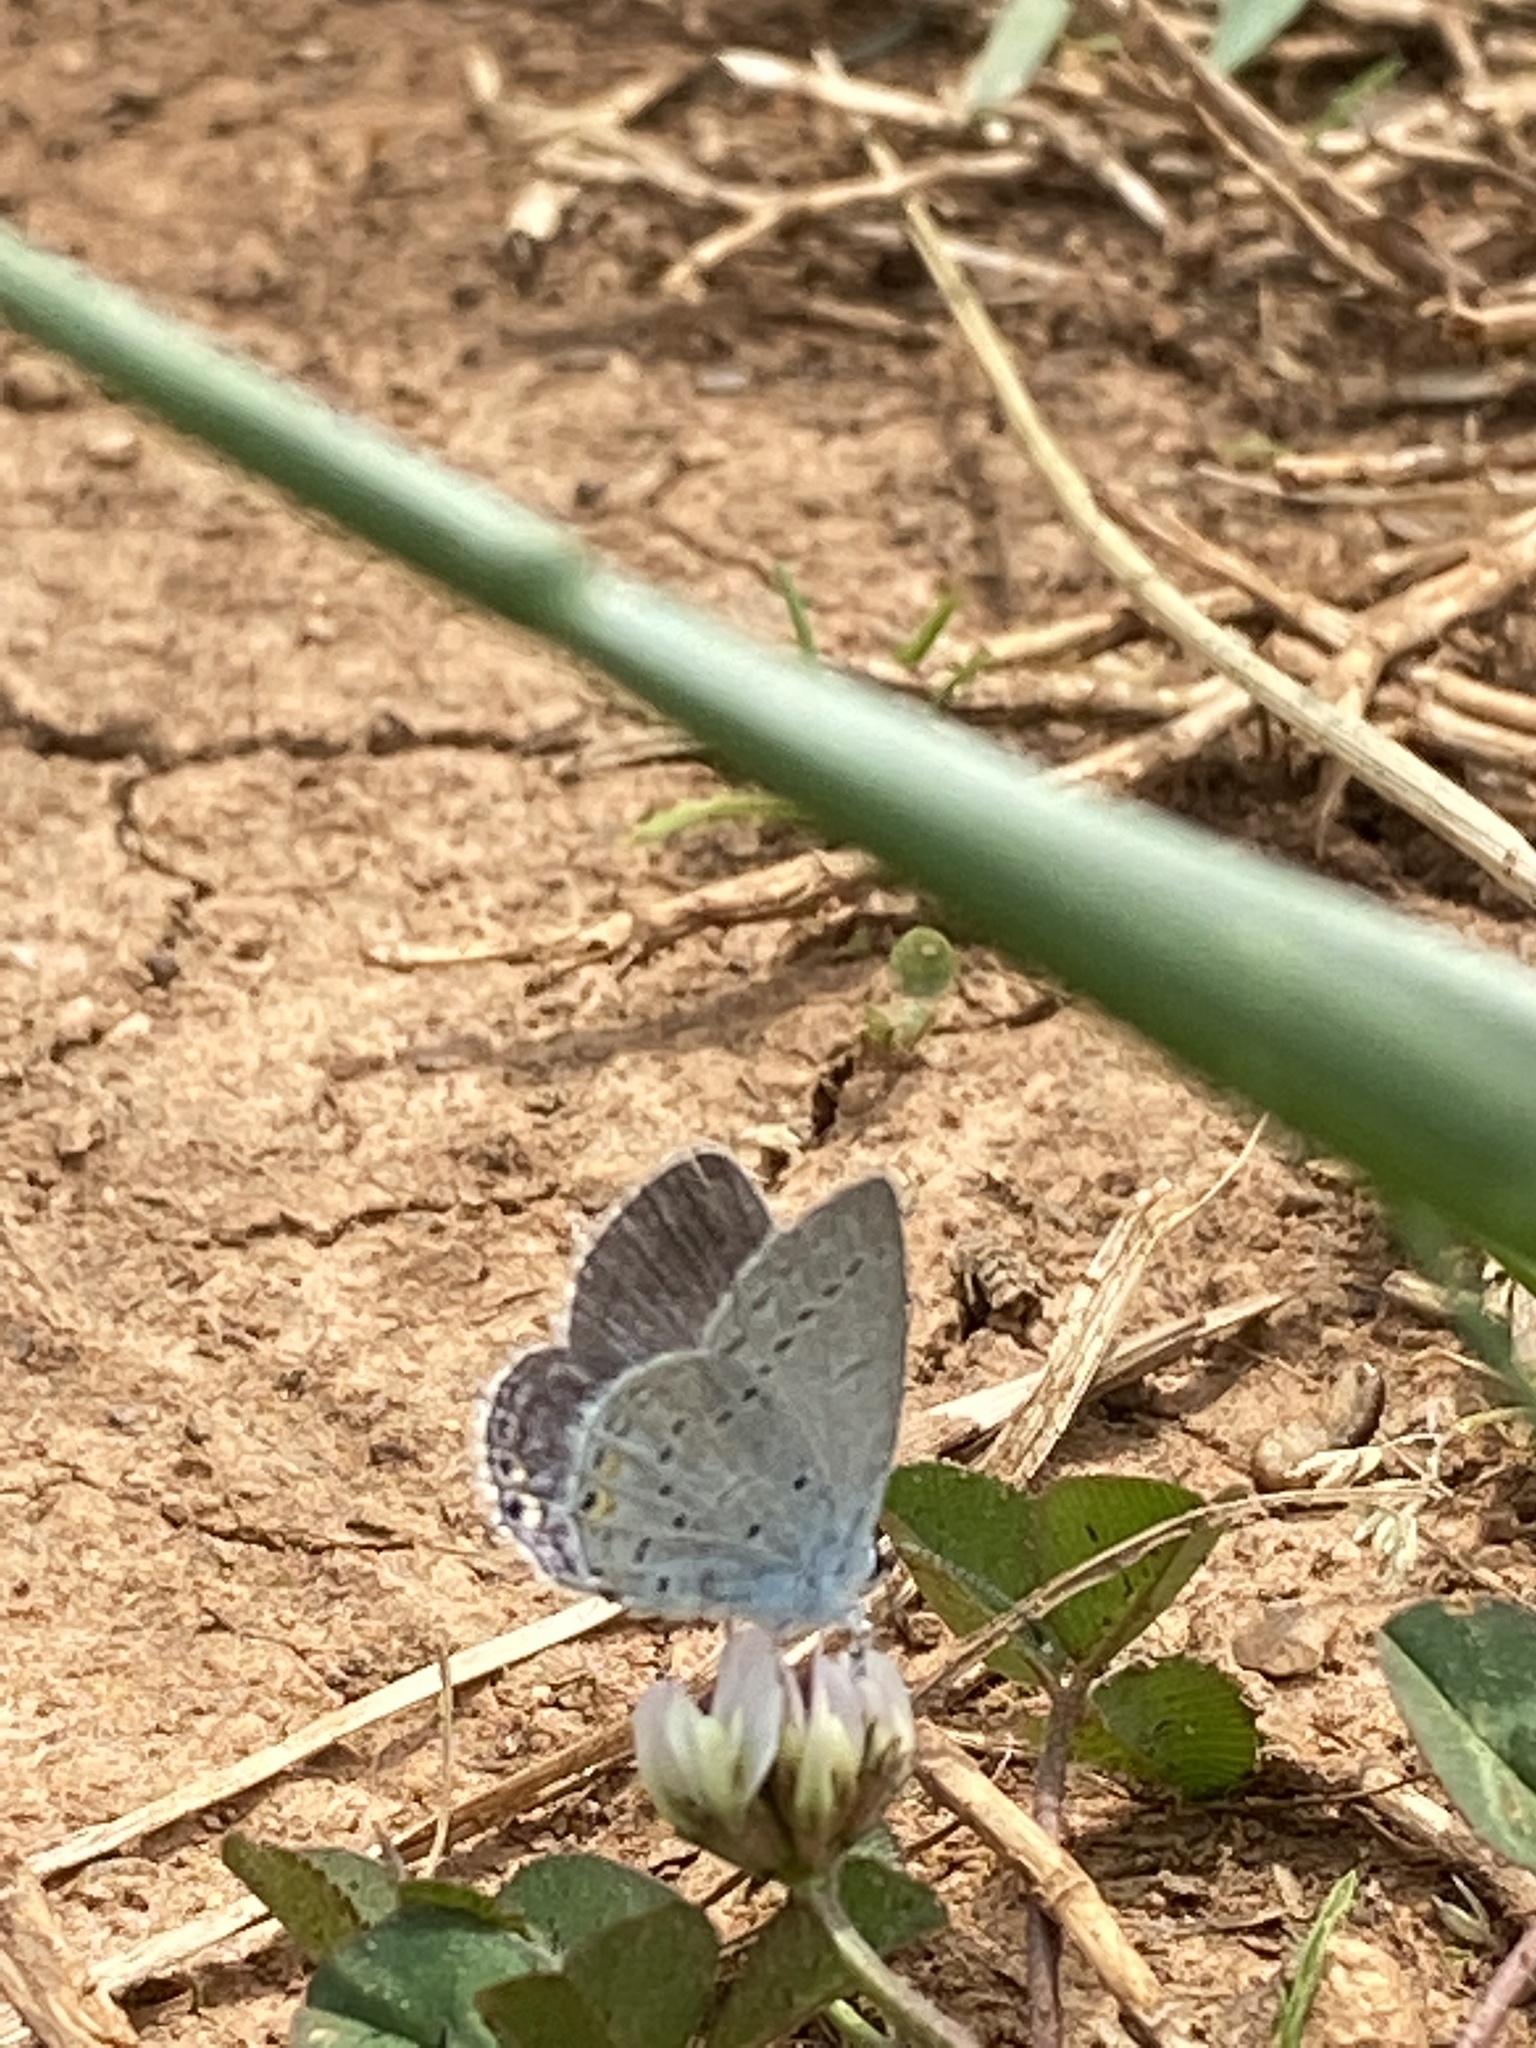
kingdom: Animalia
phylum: Arthropoda
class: Insecta
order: Lepidoptera
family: Lycaenidae
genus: Elkalyce
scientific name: Elkalyce comyntas
